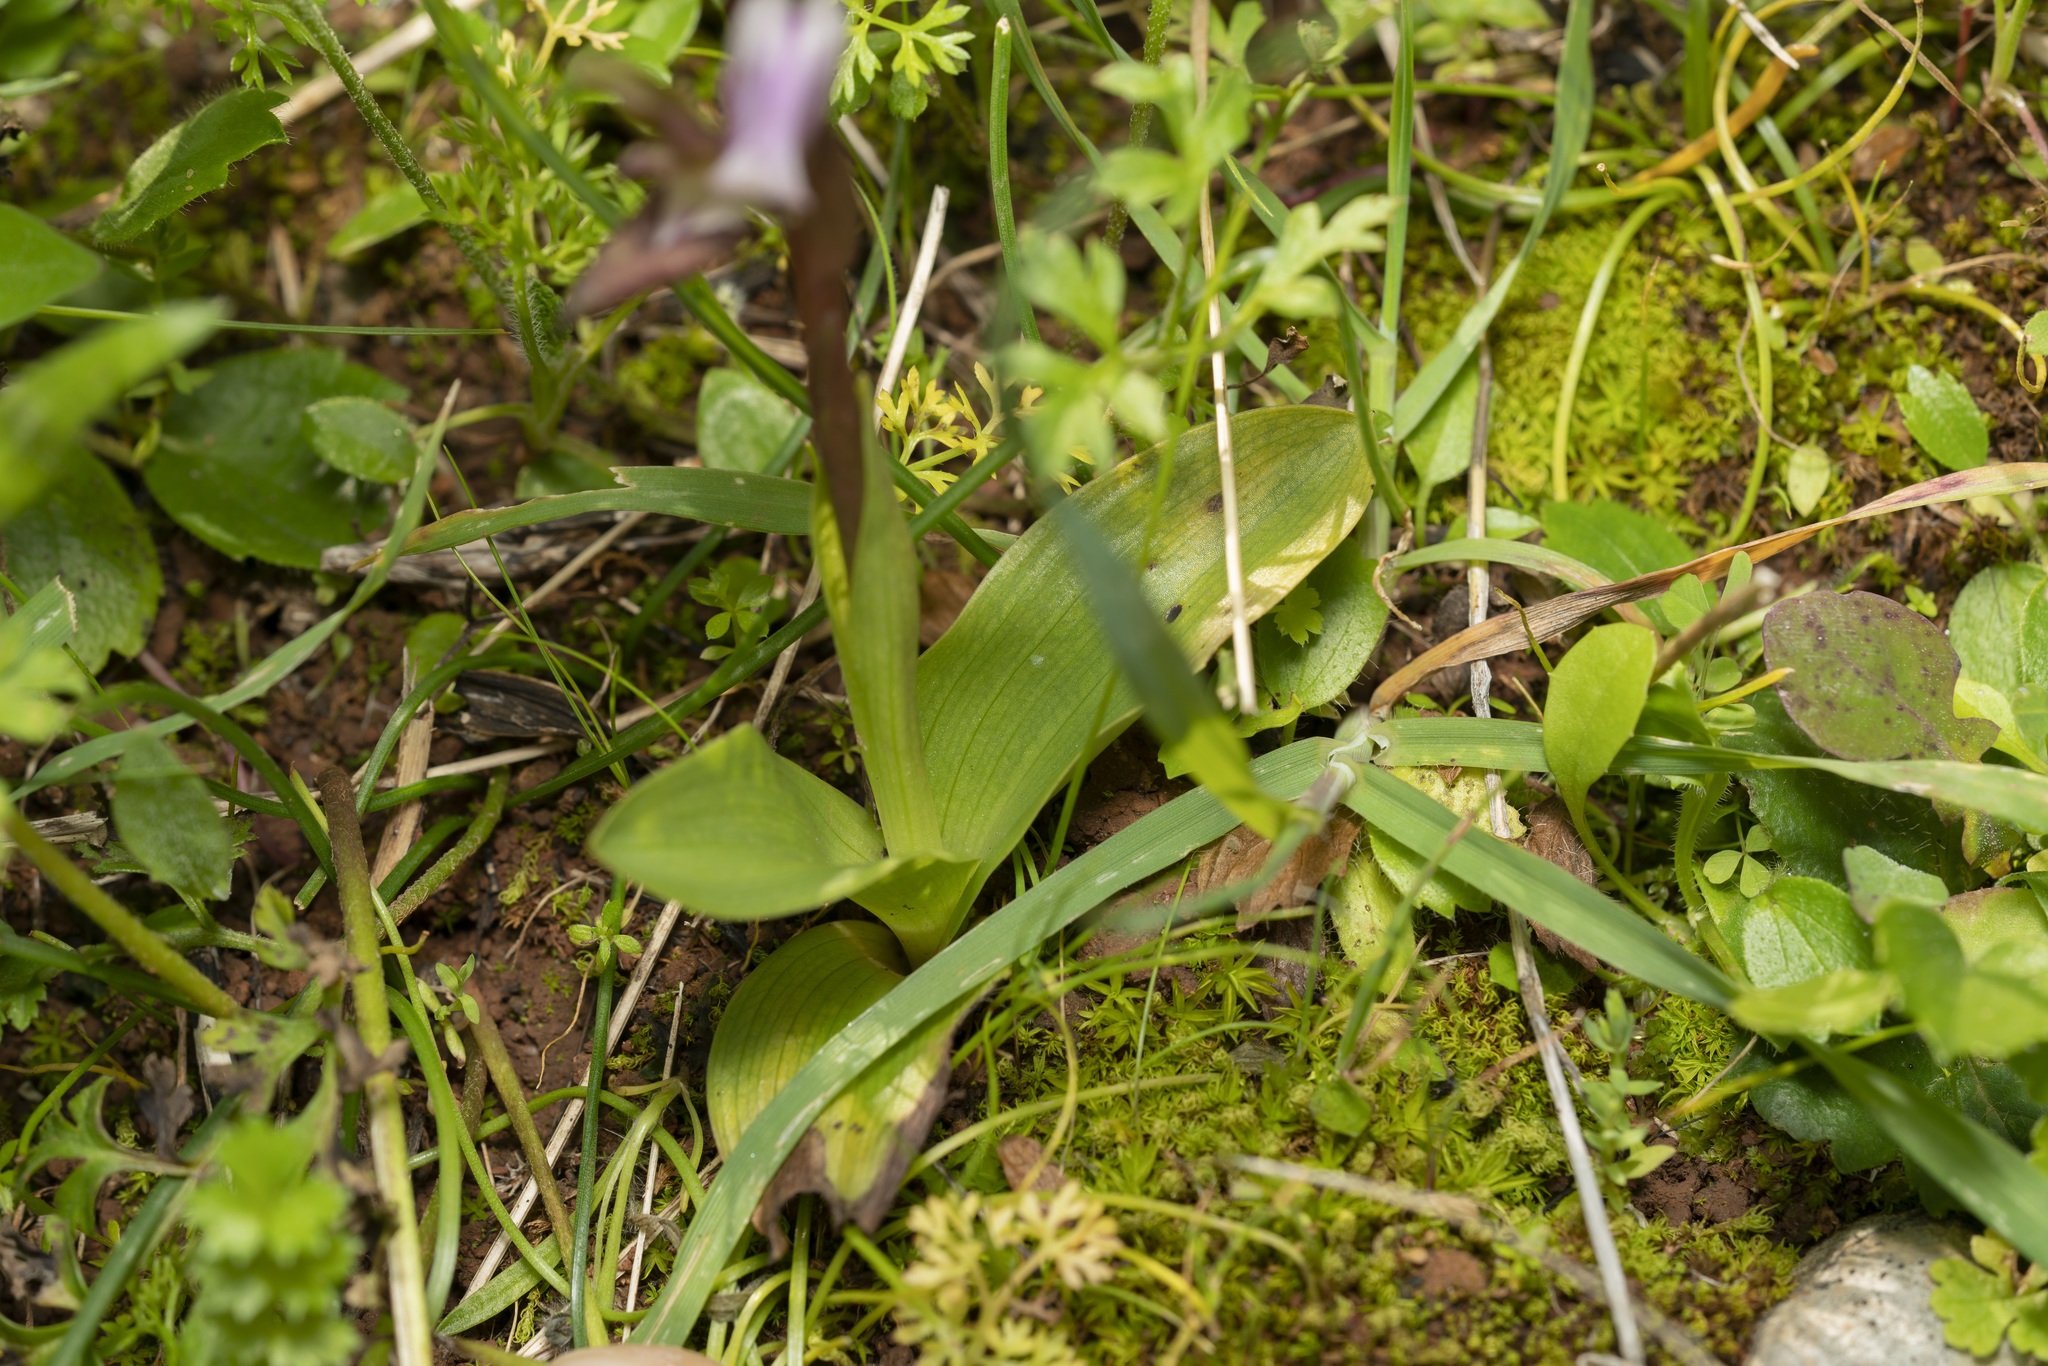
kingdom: Plantae
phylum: Tracheophyta
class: Liliopsida
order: Asparagales
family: Orchidaceae
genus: Anacamptis
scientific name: Anacamptis collina
